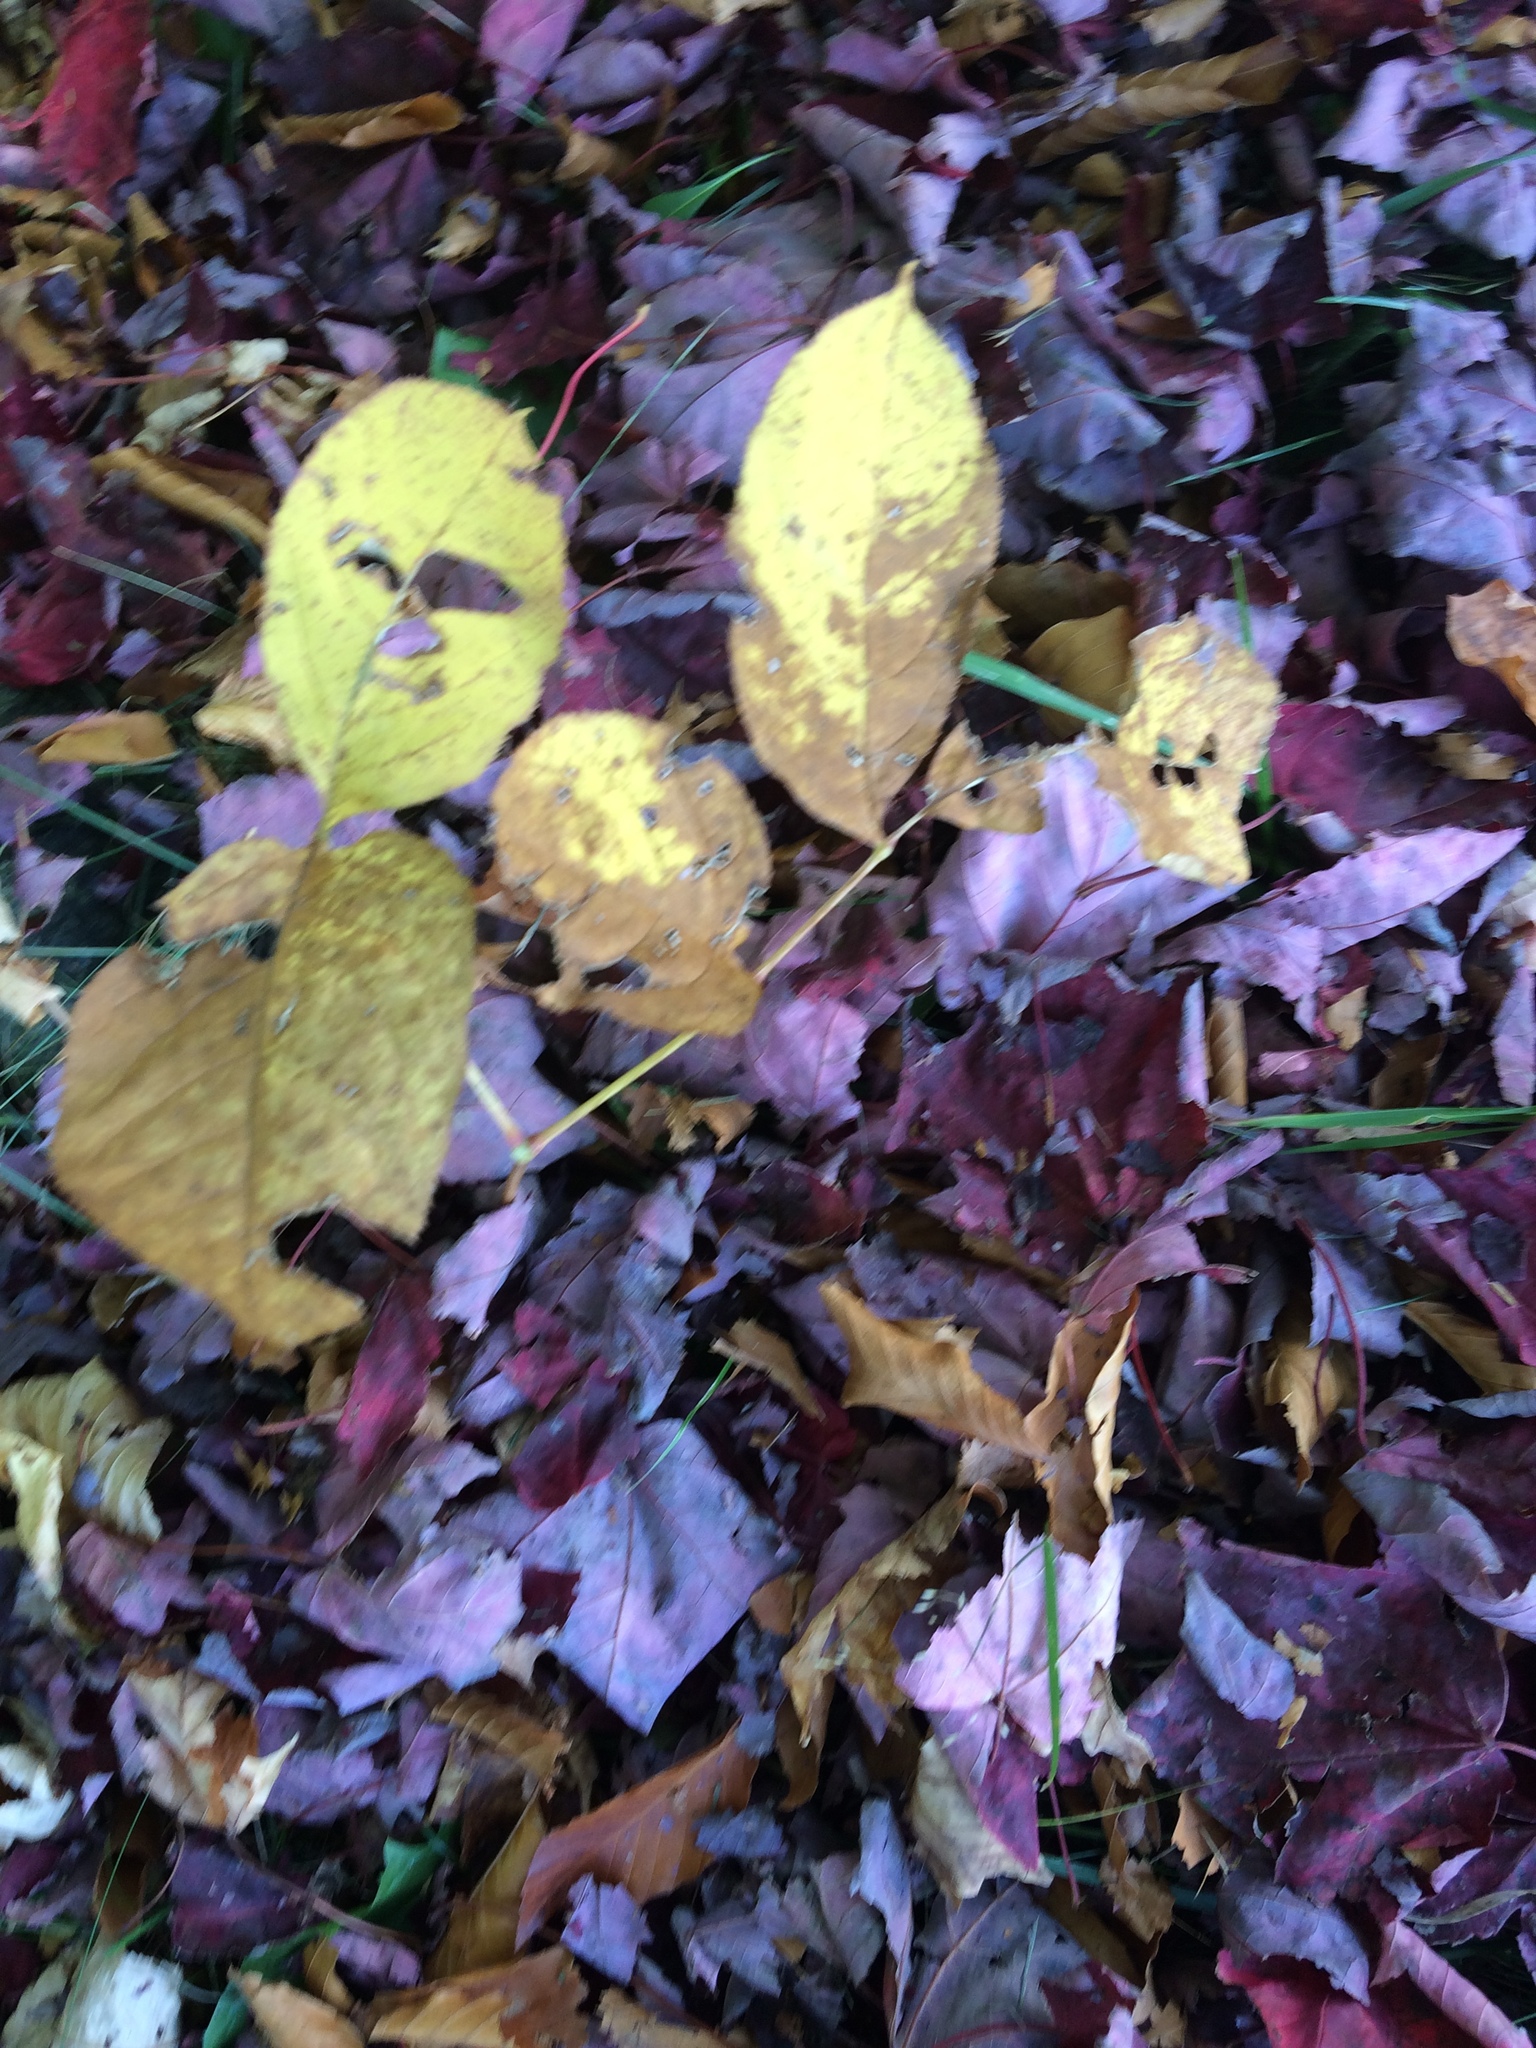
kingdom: Plantae
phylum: Tracheophyta
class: Magnoliopsida
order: Apiales
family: Araliaceae
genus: Aralia
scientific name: Aralia nudicaulis
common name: Wild sarsaparilla
